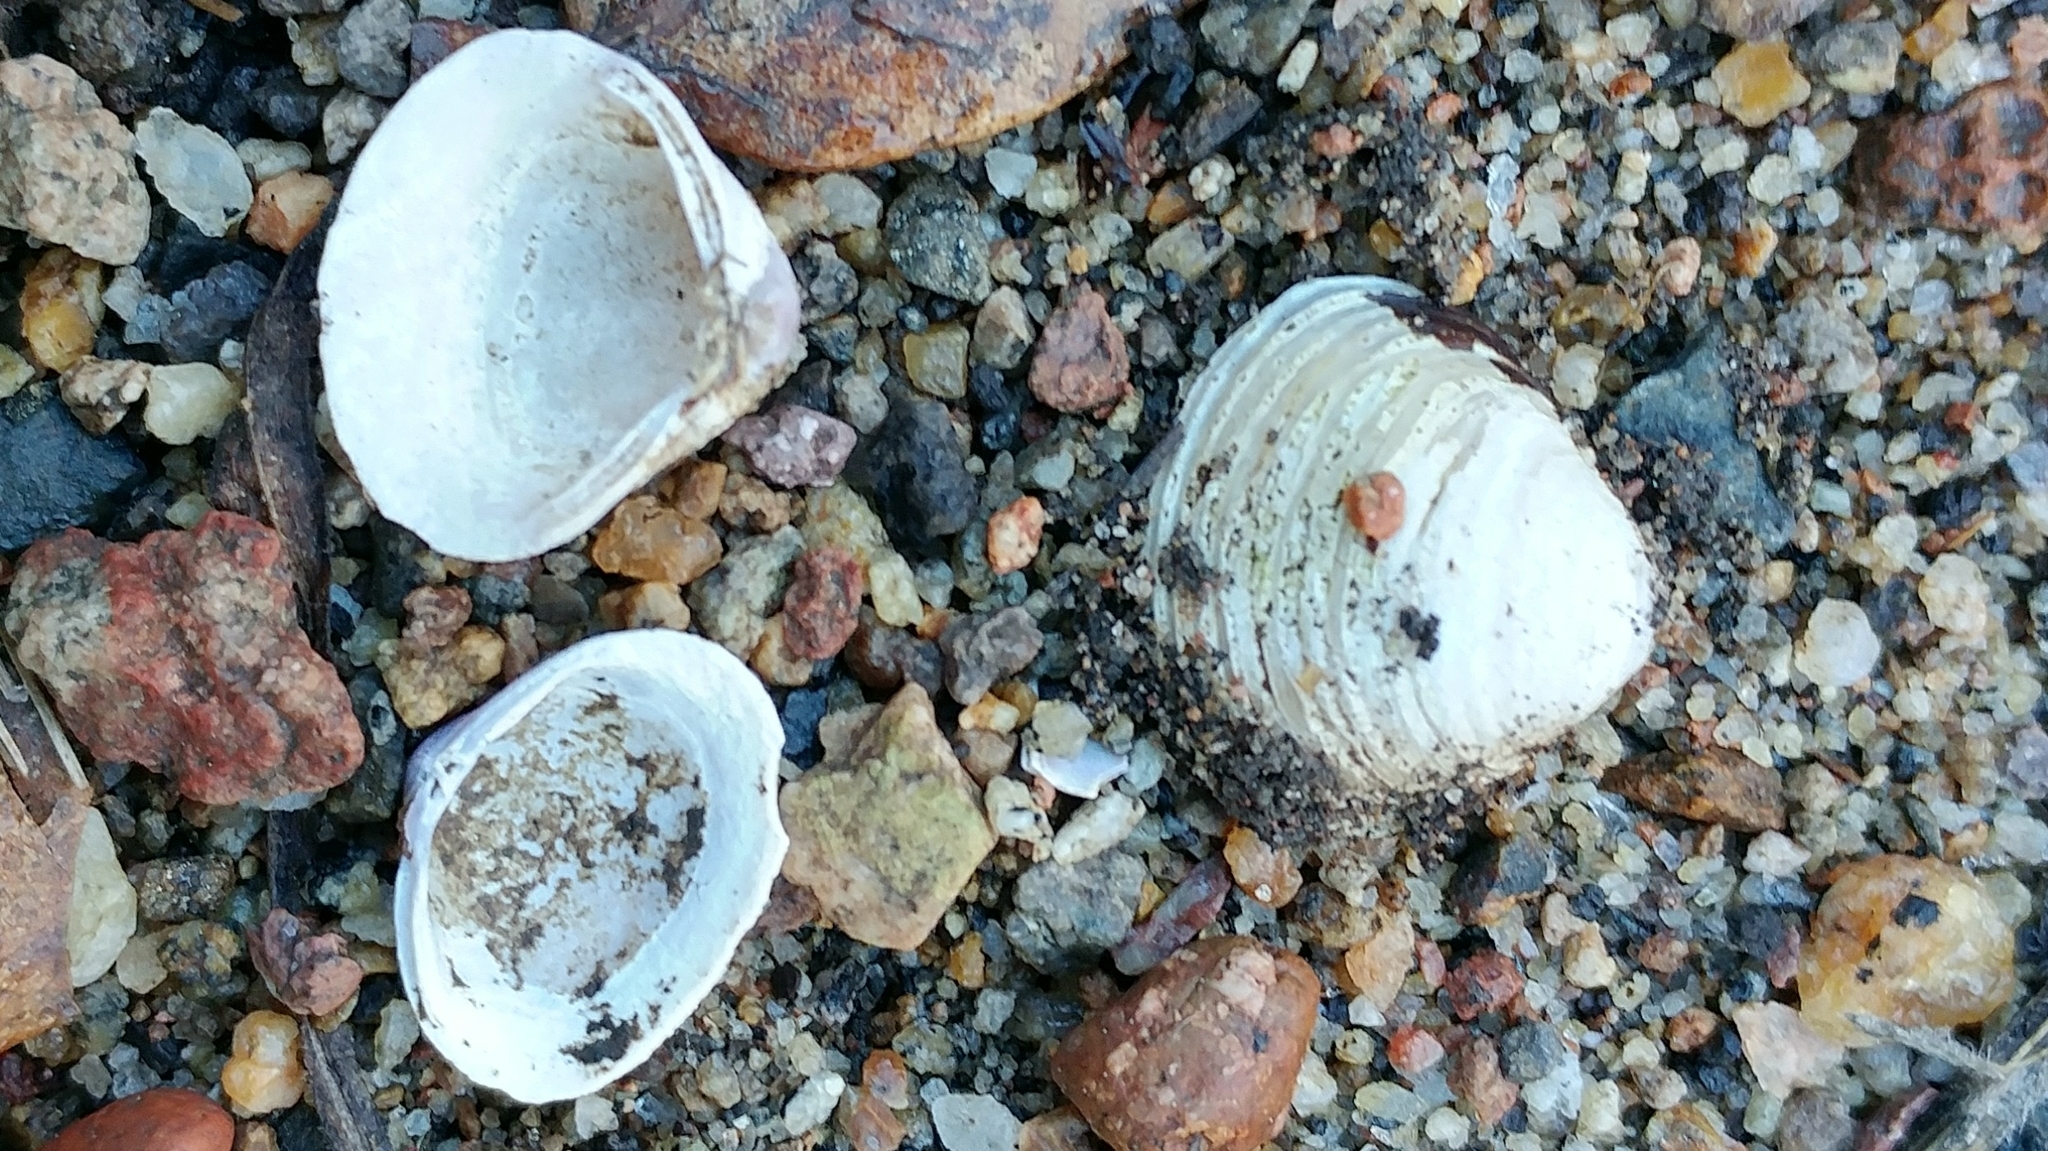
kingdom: Animalia
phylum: Mollusca
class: Bivalvia
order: Venerida
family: Cyrenidae
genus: Corbicula
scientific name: Corbicula fluminea
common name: Asian clam
